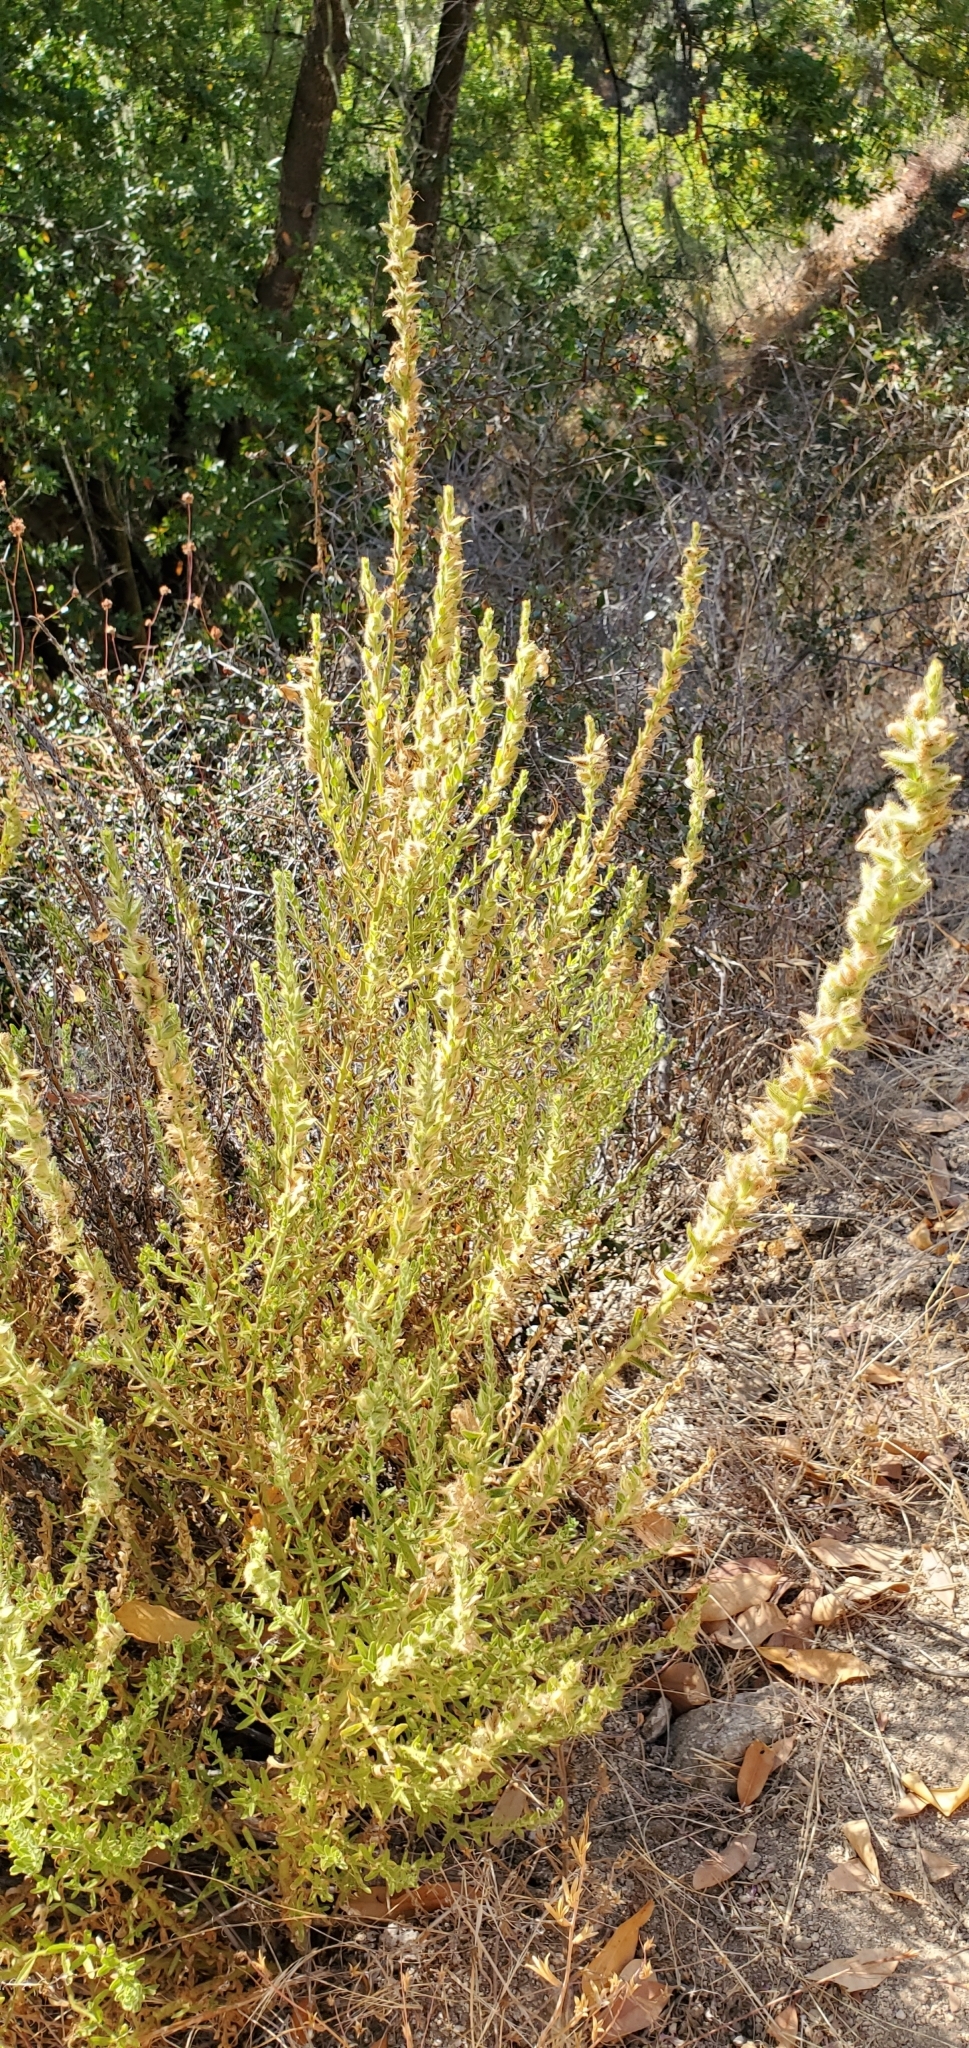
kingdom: Plantae
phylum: Tracheophyta
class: Magnoliopsida
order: Lamiales
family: Plantaginaceae
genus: Sairocarpus
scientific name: Sairocarpus multiflorus
